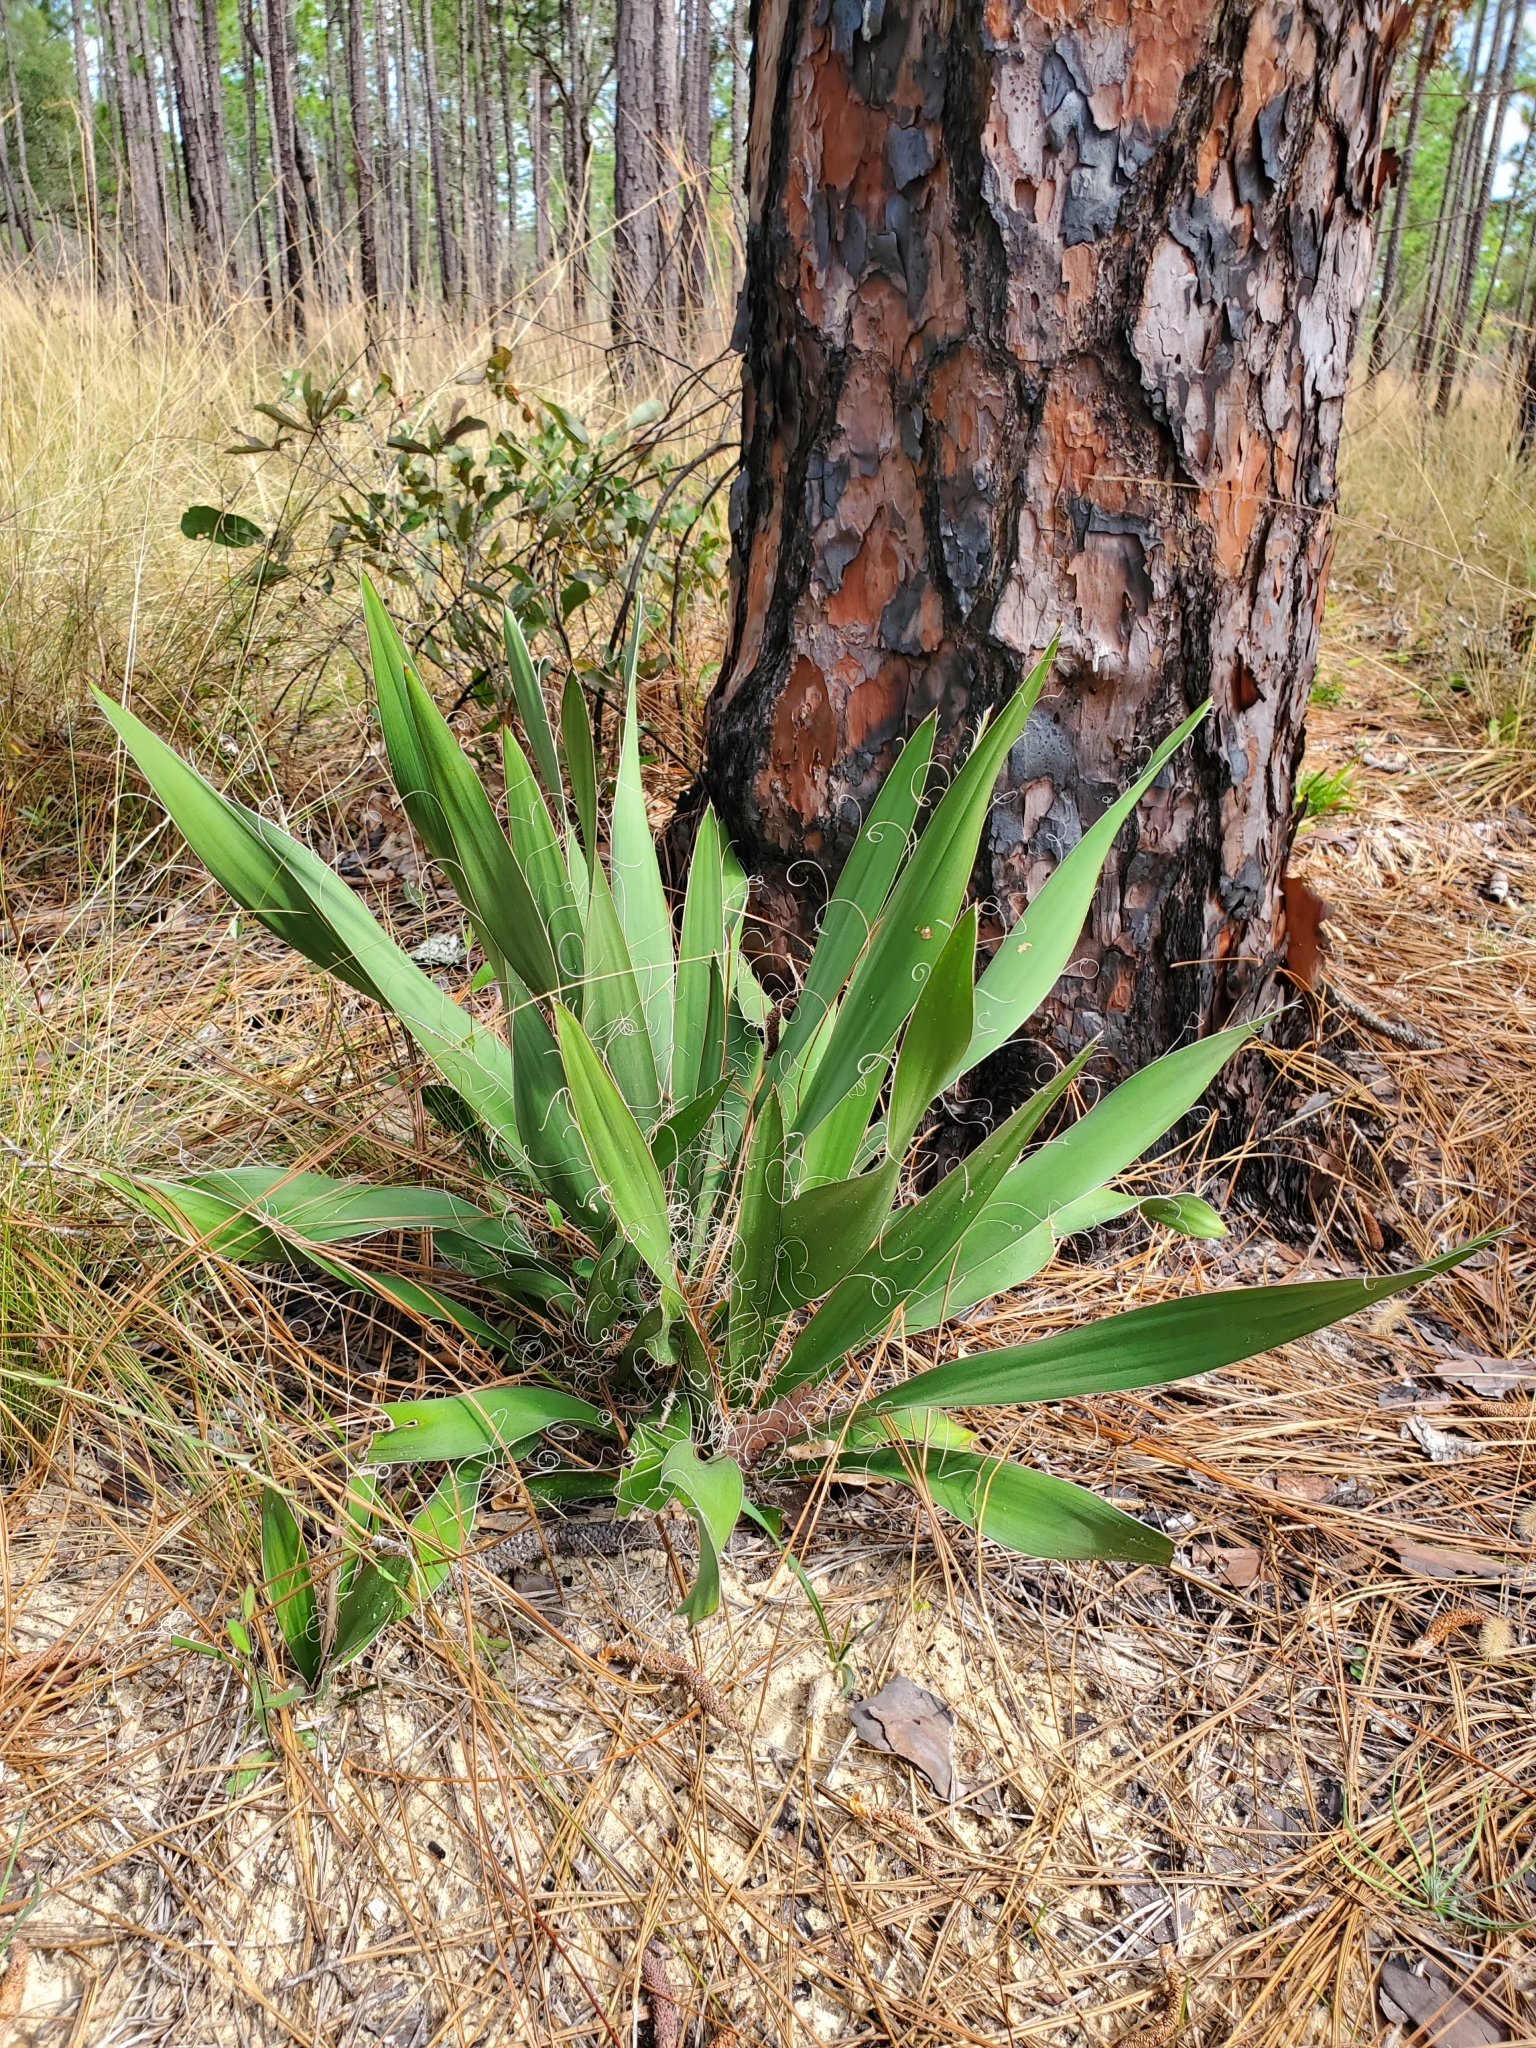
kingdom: Plantae
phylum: Tracheophyta
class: Liliopsida
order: Asparagales
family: Asparagaceae
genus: Yucca
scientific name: Yucca filamentosa
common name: Adam's-needle
